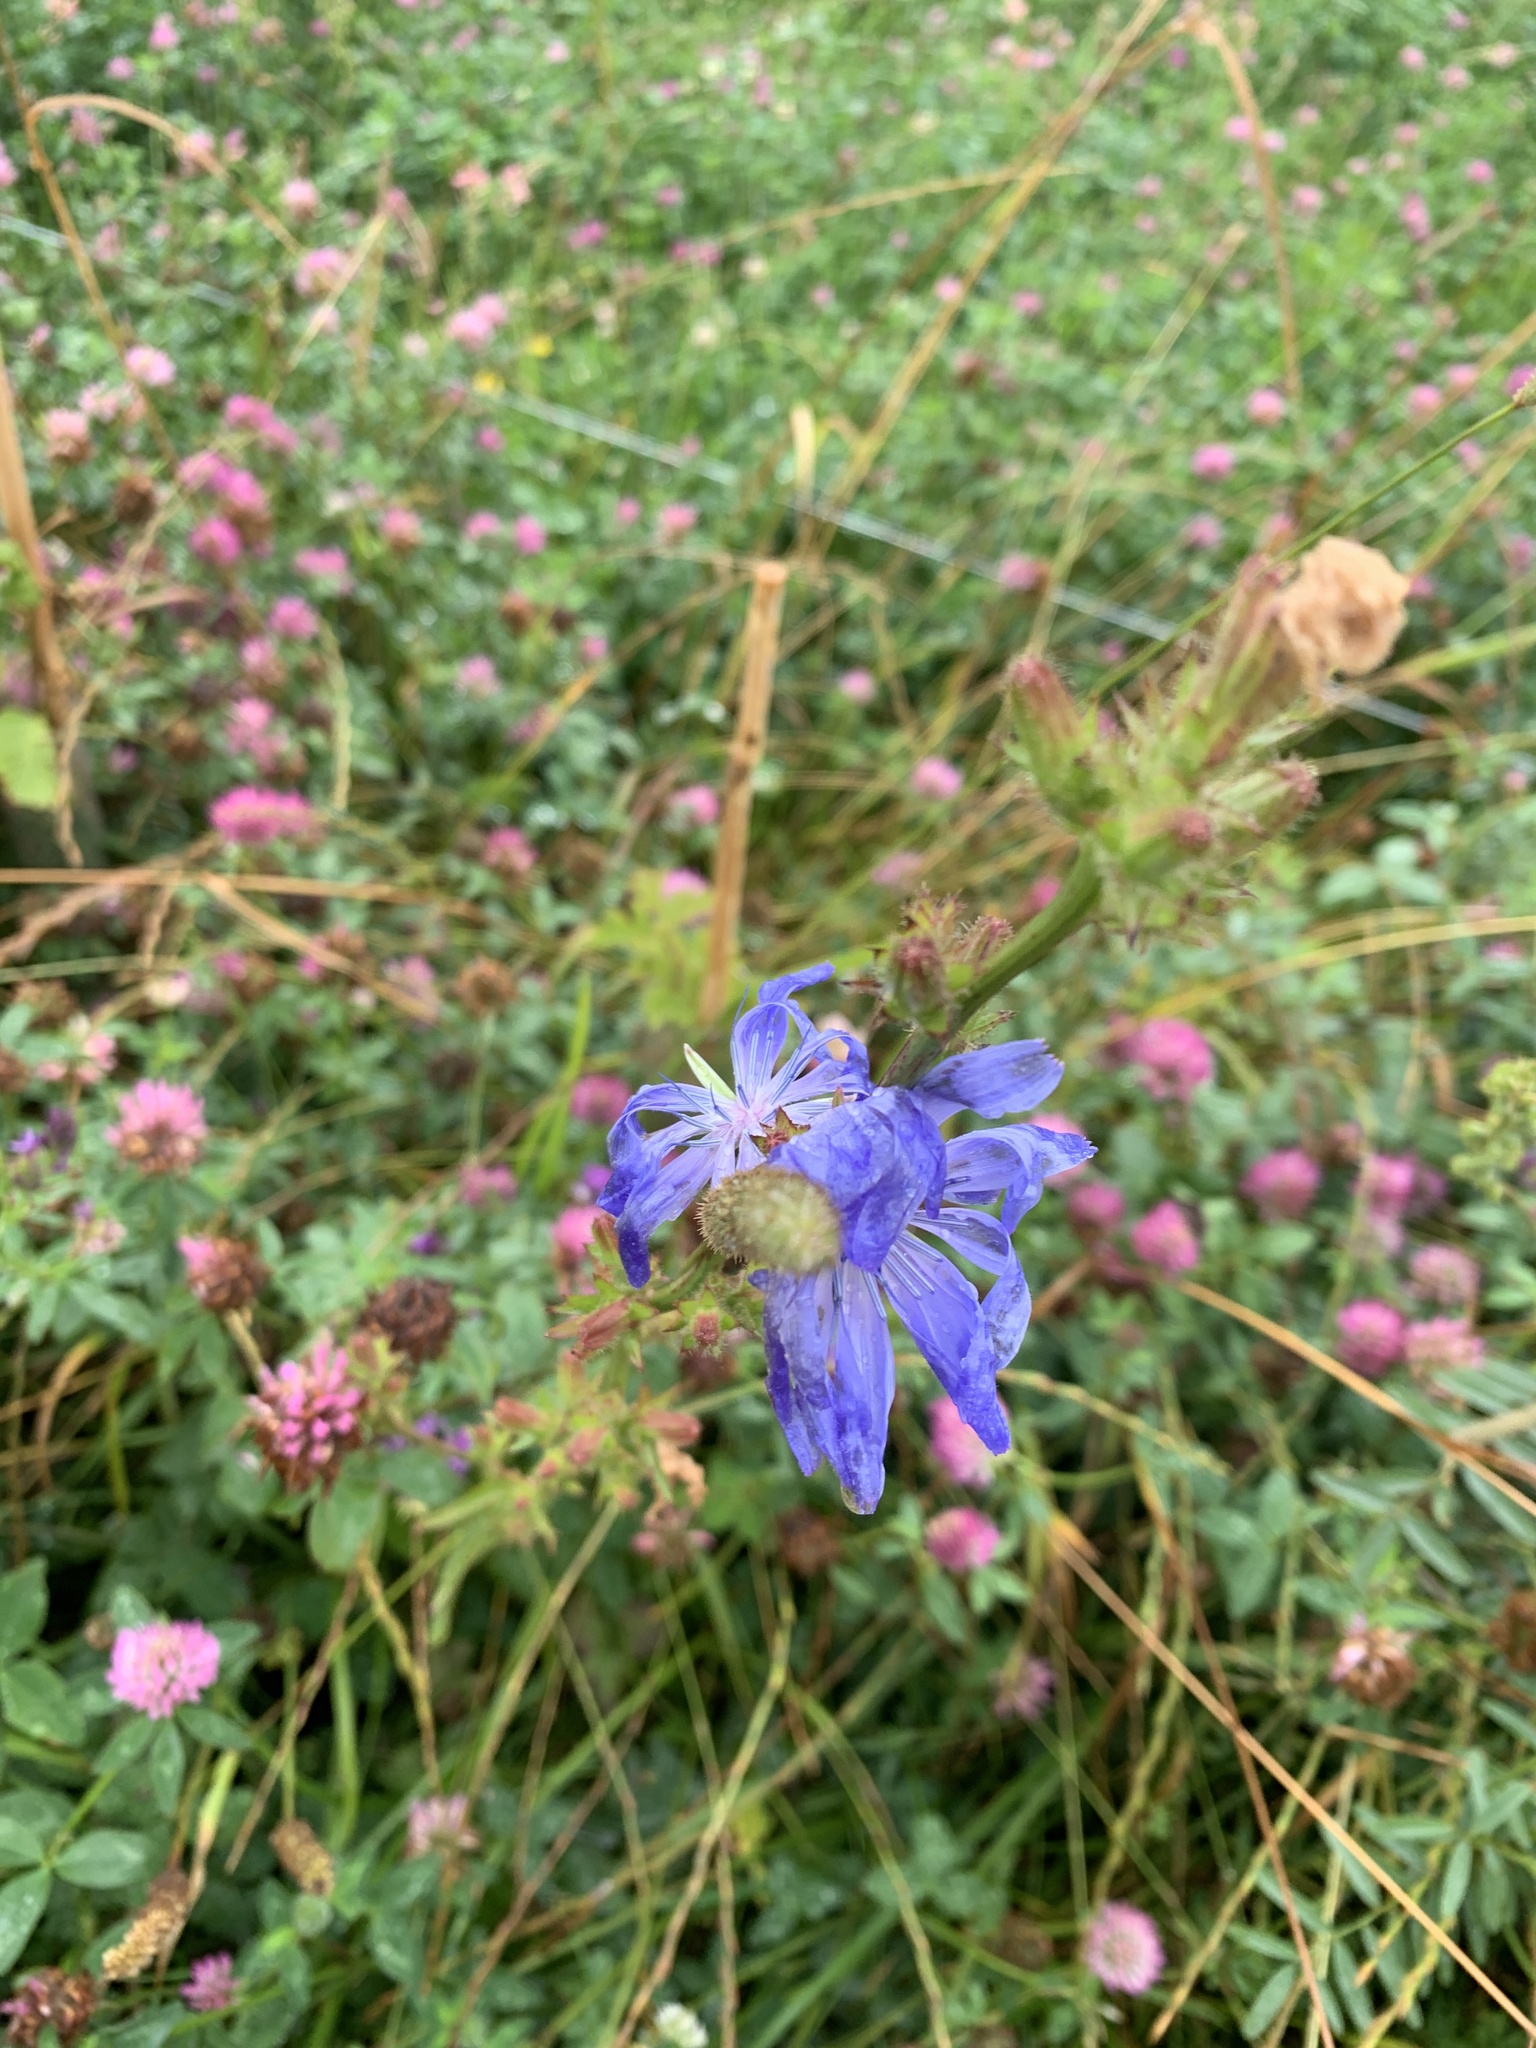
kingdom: Plantae
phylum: Tracheophyta
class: Magnoliopsida
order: Asterales
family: Asteraceae
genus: Cichorium
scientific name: Cichorium intybus
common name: Chicory
